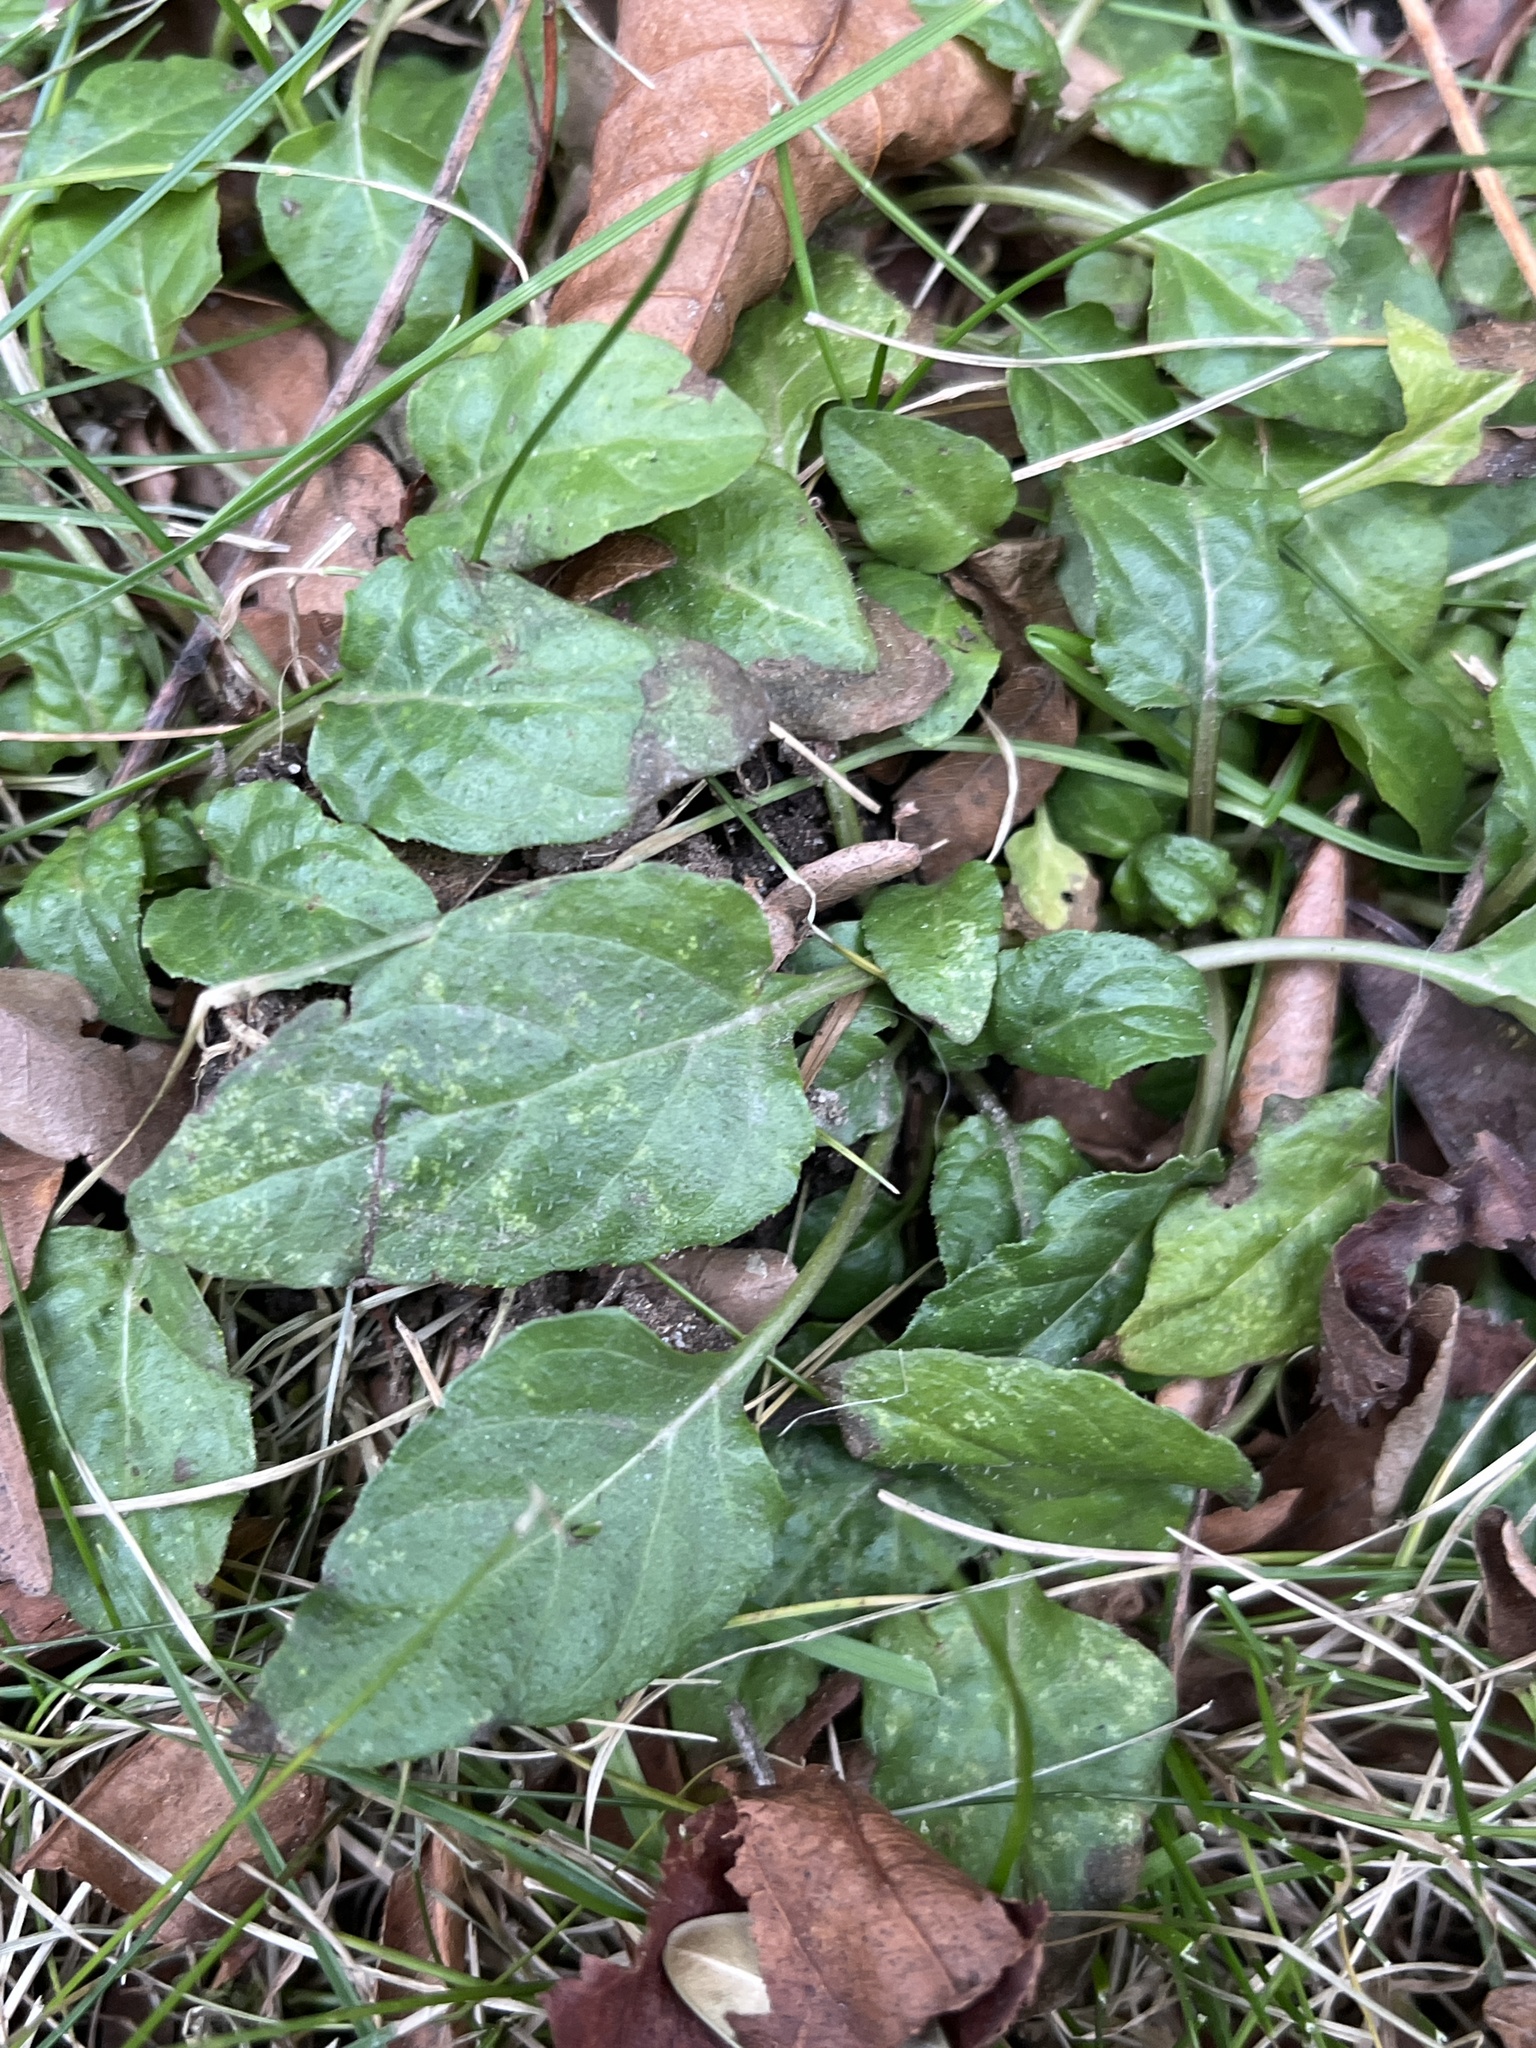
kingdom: Plantae
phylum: Tracheophyta
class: Magnoliopsida
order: Lamiales
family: Lamiaceae
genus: Prunella
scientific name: Prunella vulgaris
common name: Heal-all
